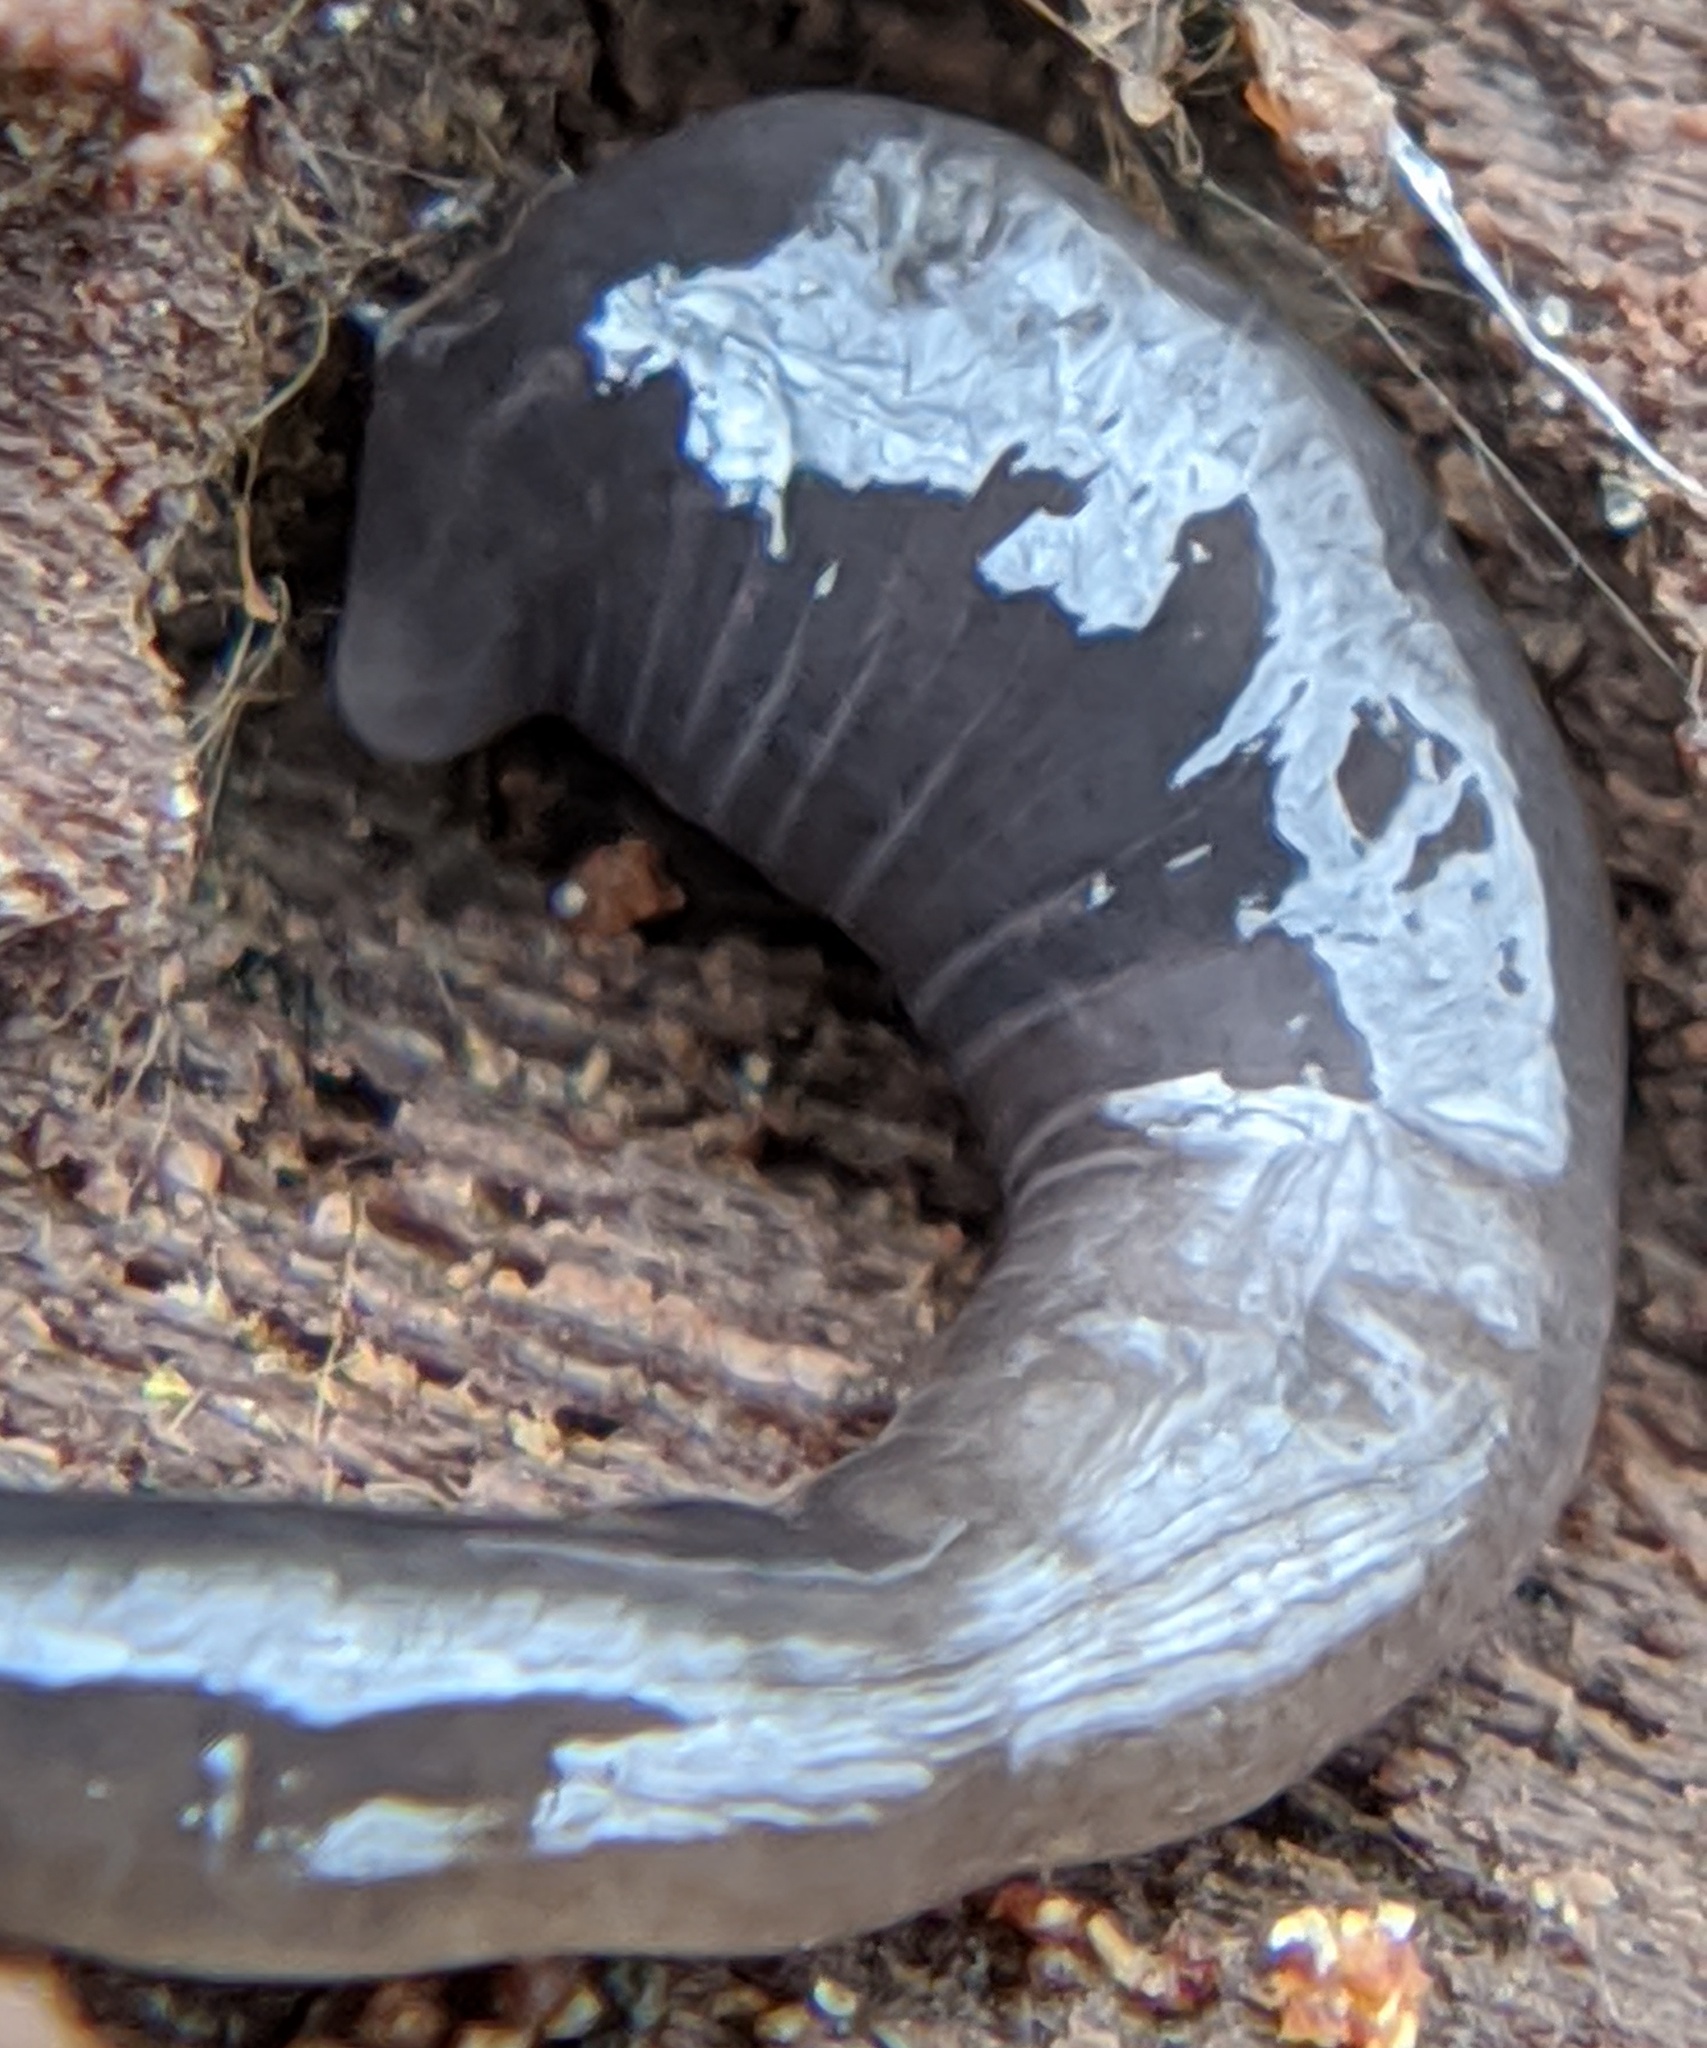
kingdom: Animalia
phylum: Platyhelminthes
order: Tricladida
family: Geoplanidae
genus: Microplana
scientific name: Microplana terrestris
